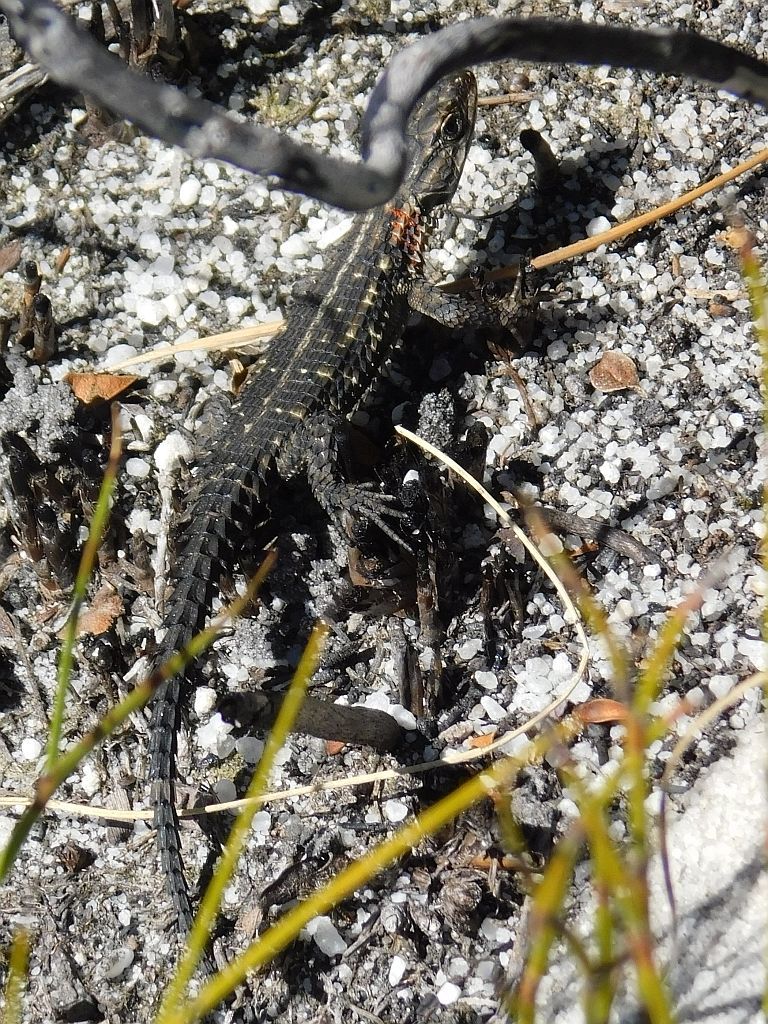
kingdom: Animalia
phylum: Chordata
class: Squamata
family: Cordylidae
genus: Cordylus
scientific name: Cordylus oelofseni
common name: Oelofsen's girdled lizard
